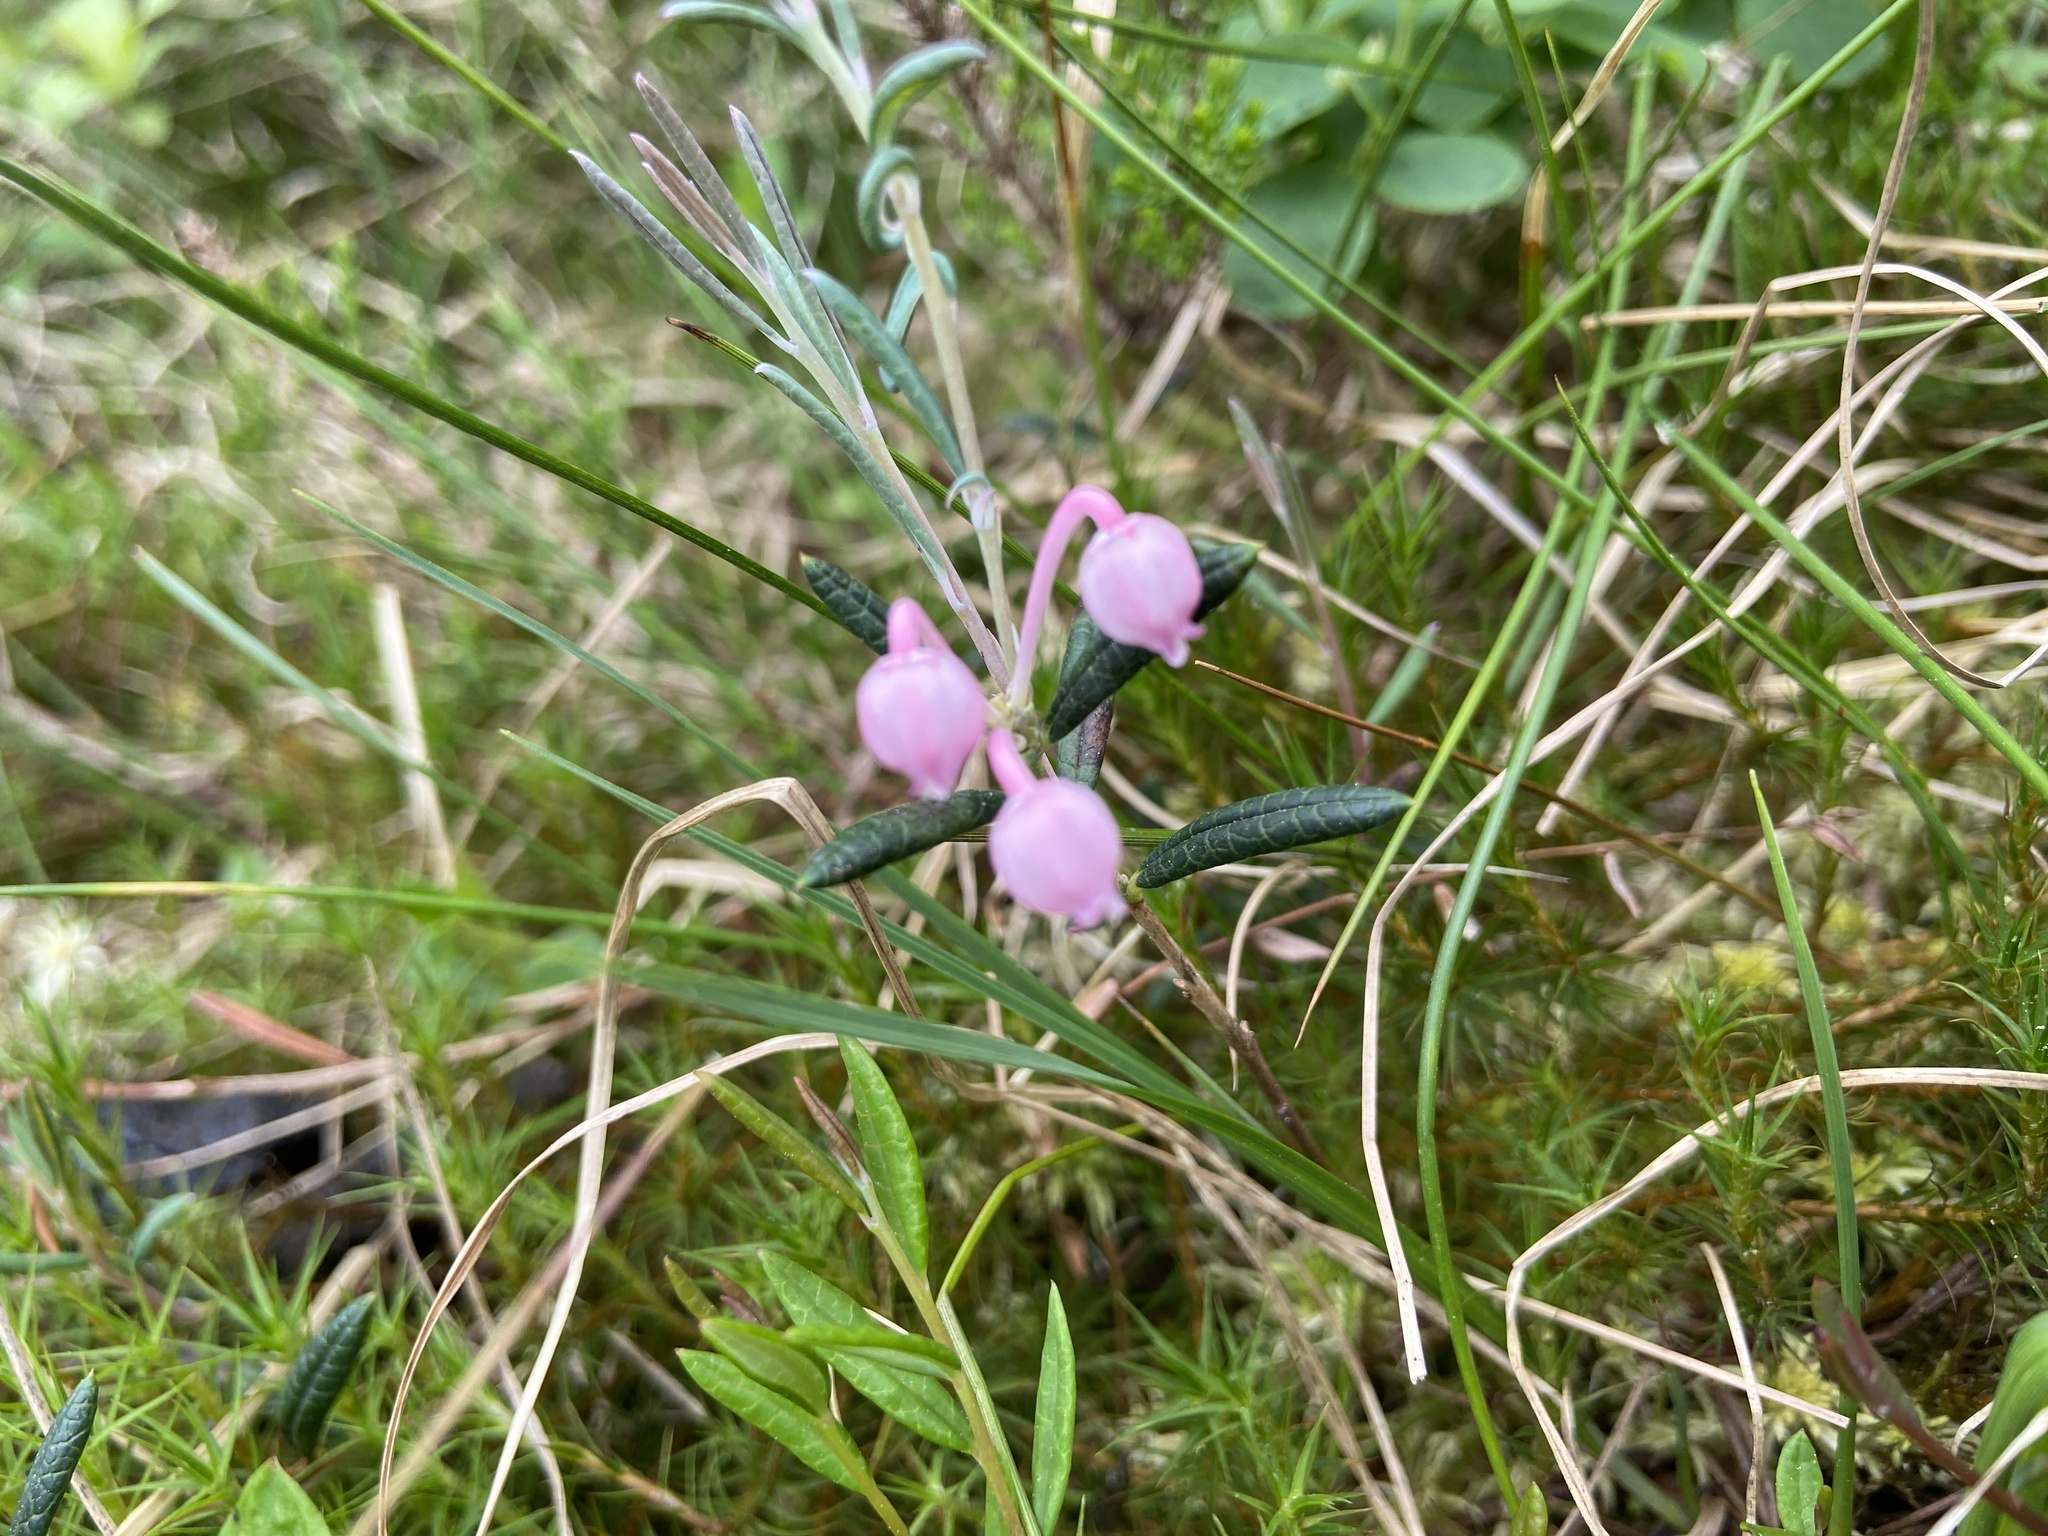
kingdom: Plantae
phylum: Tracheophyta
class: Magnoliopsida
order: Ericales
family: Ericaceae
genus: Andromeda
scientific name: Andromeda polifolia
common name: Bog-rosemary
